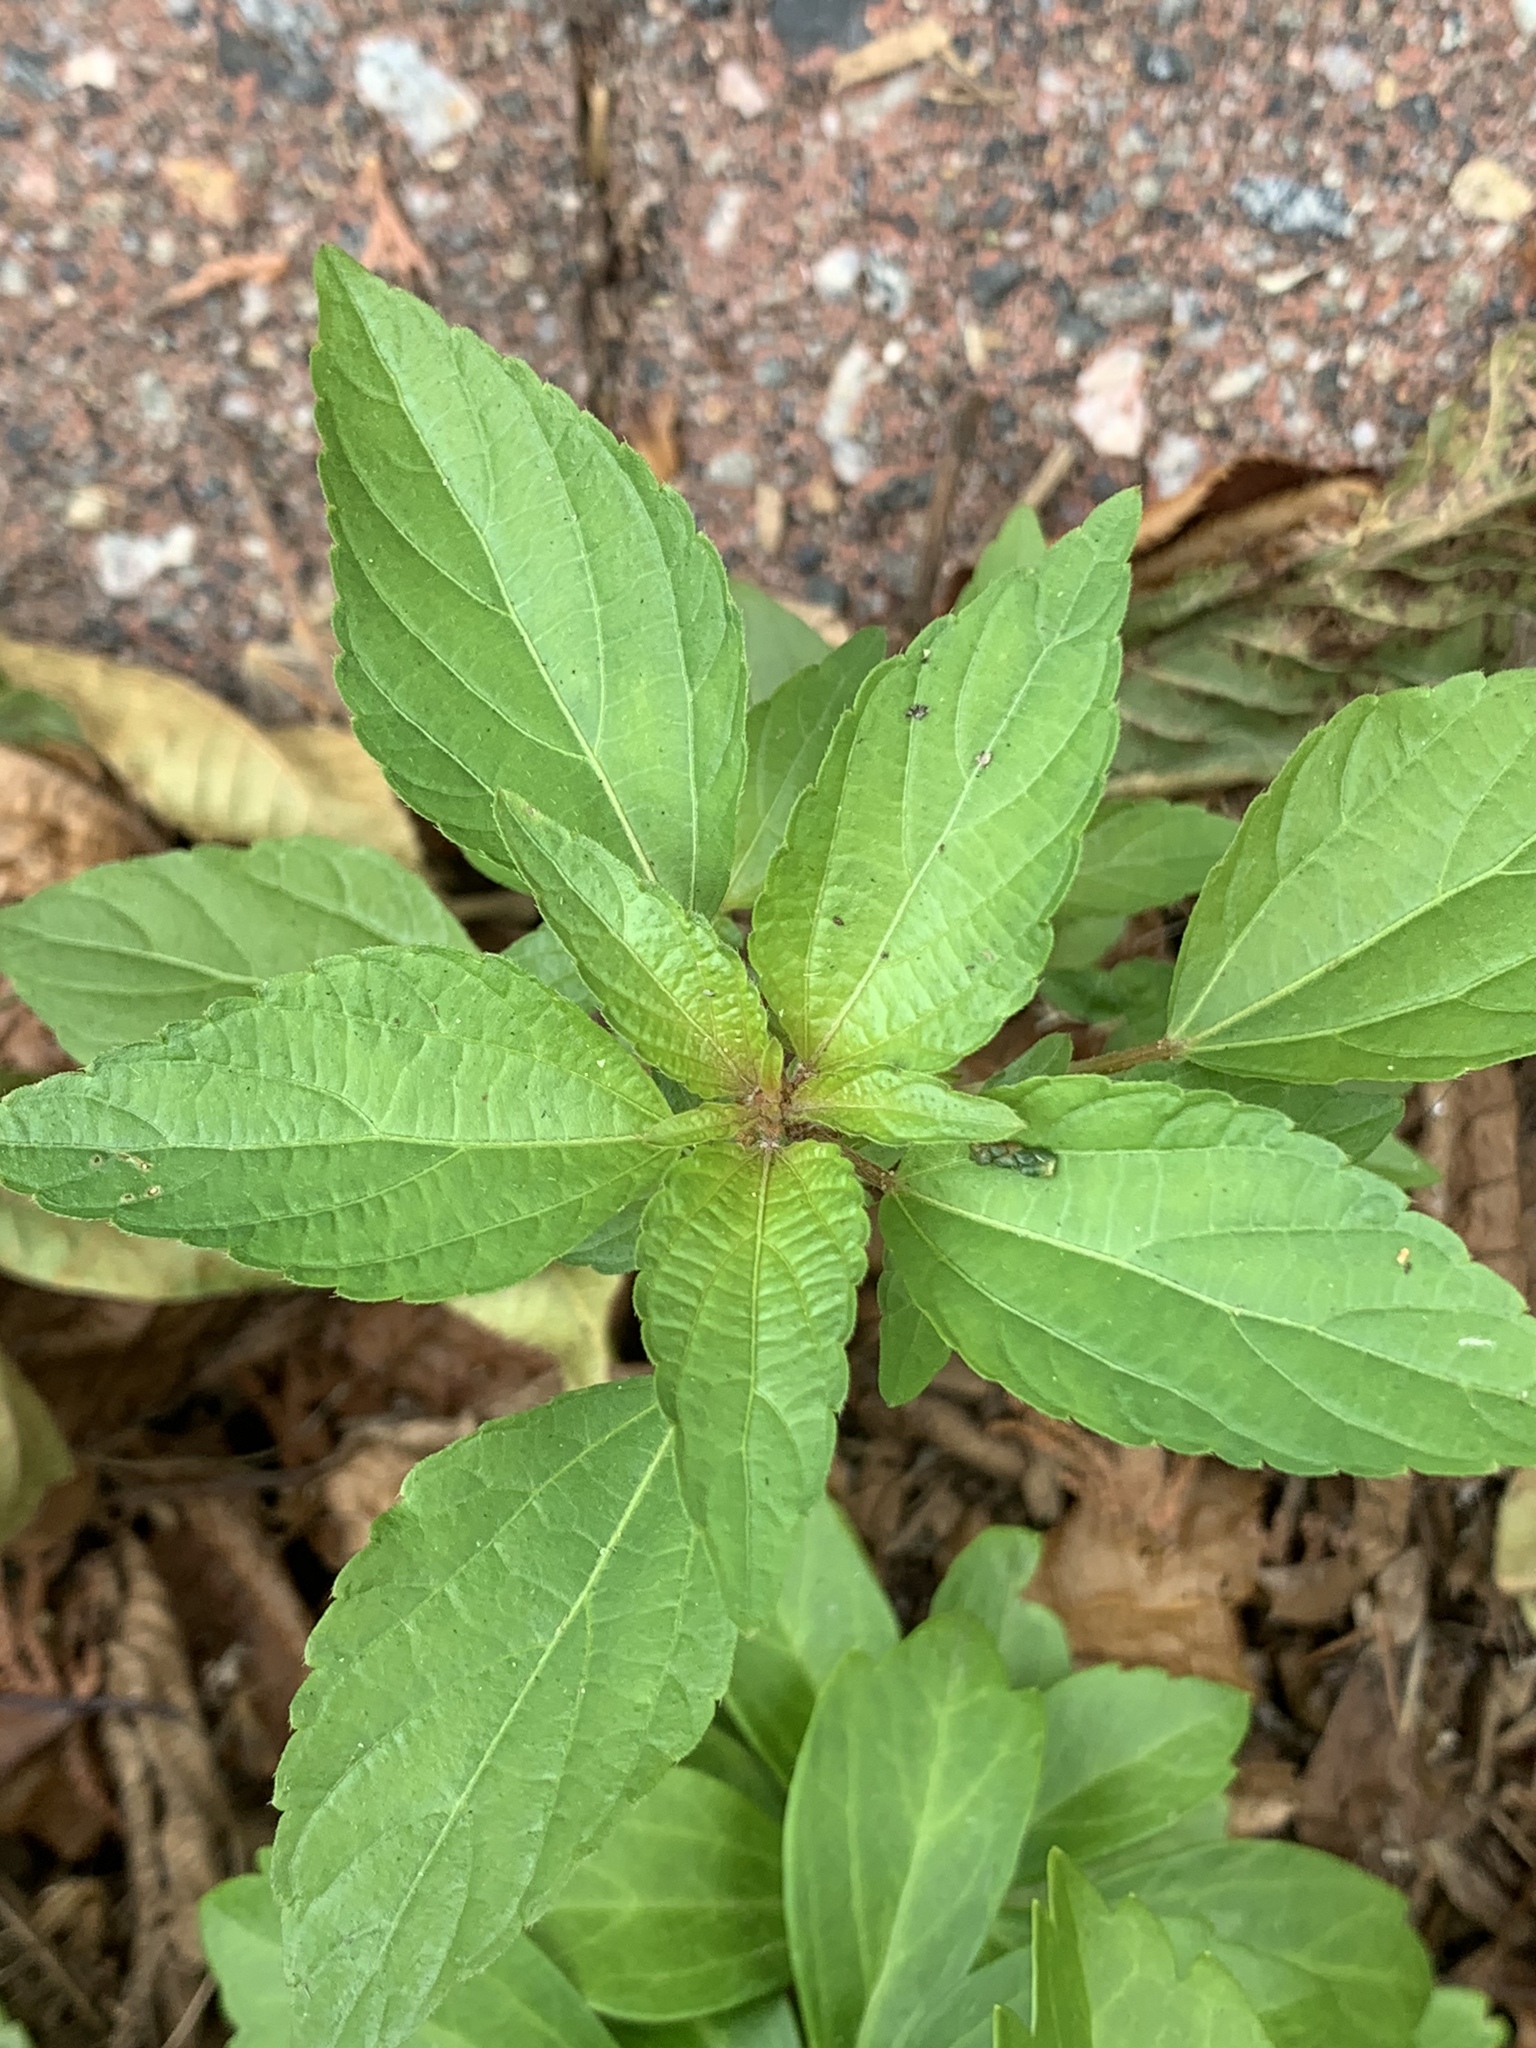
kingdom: Plantae
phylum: Tracheophyta
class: Magnoliopsida
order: Malpighiales
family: Euphorbiaceae
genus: Acalypha
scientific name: Acalypha rhomboidea
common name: Rhombic copperleaf
